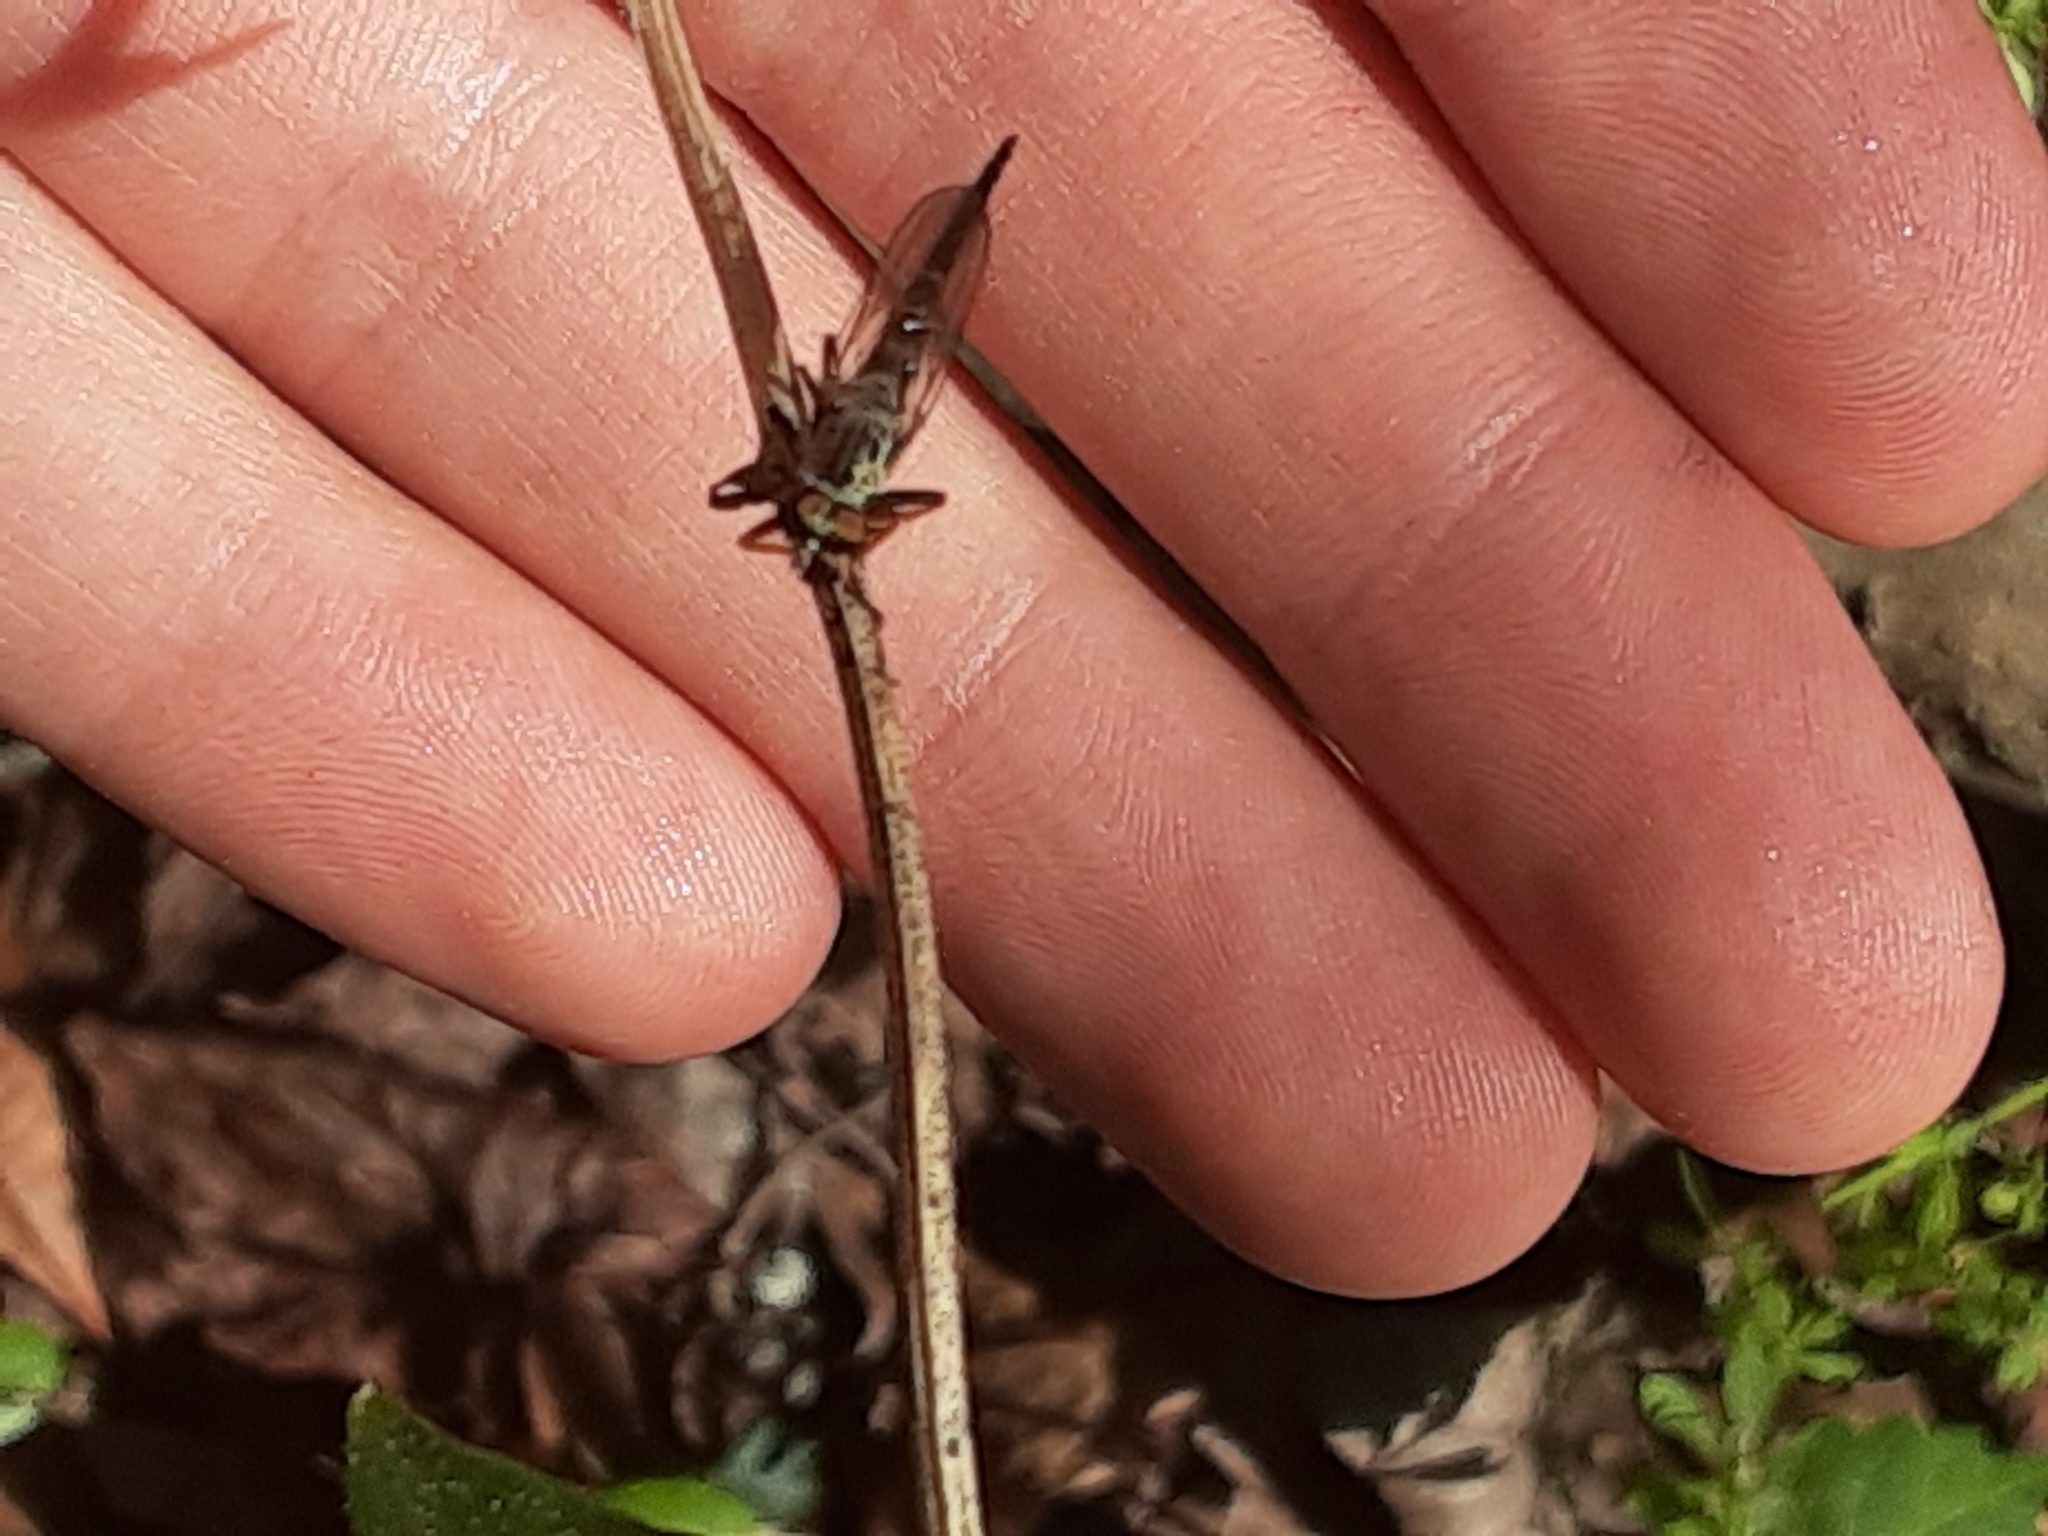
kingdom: Animalia
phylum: Arthropoda
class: Insecta
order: Diptera
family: Asilidae
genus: Asilus
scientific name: Asilus flavofemoratus
